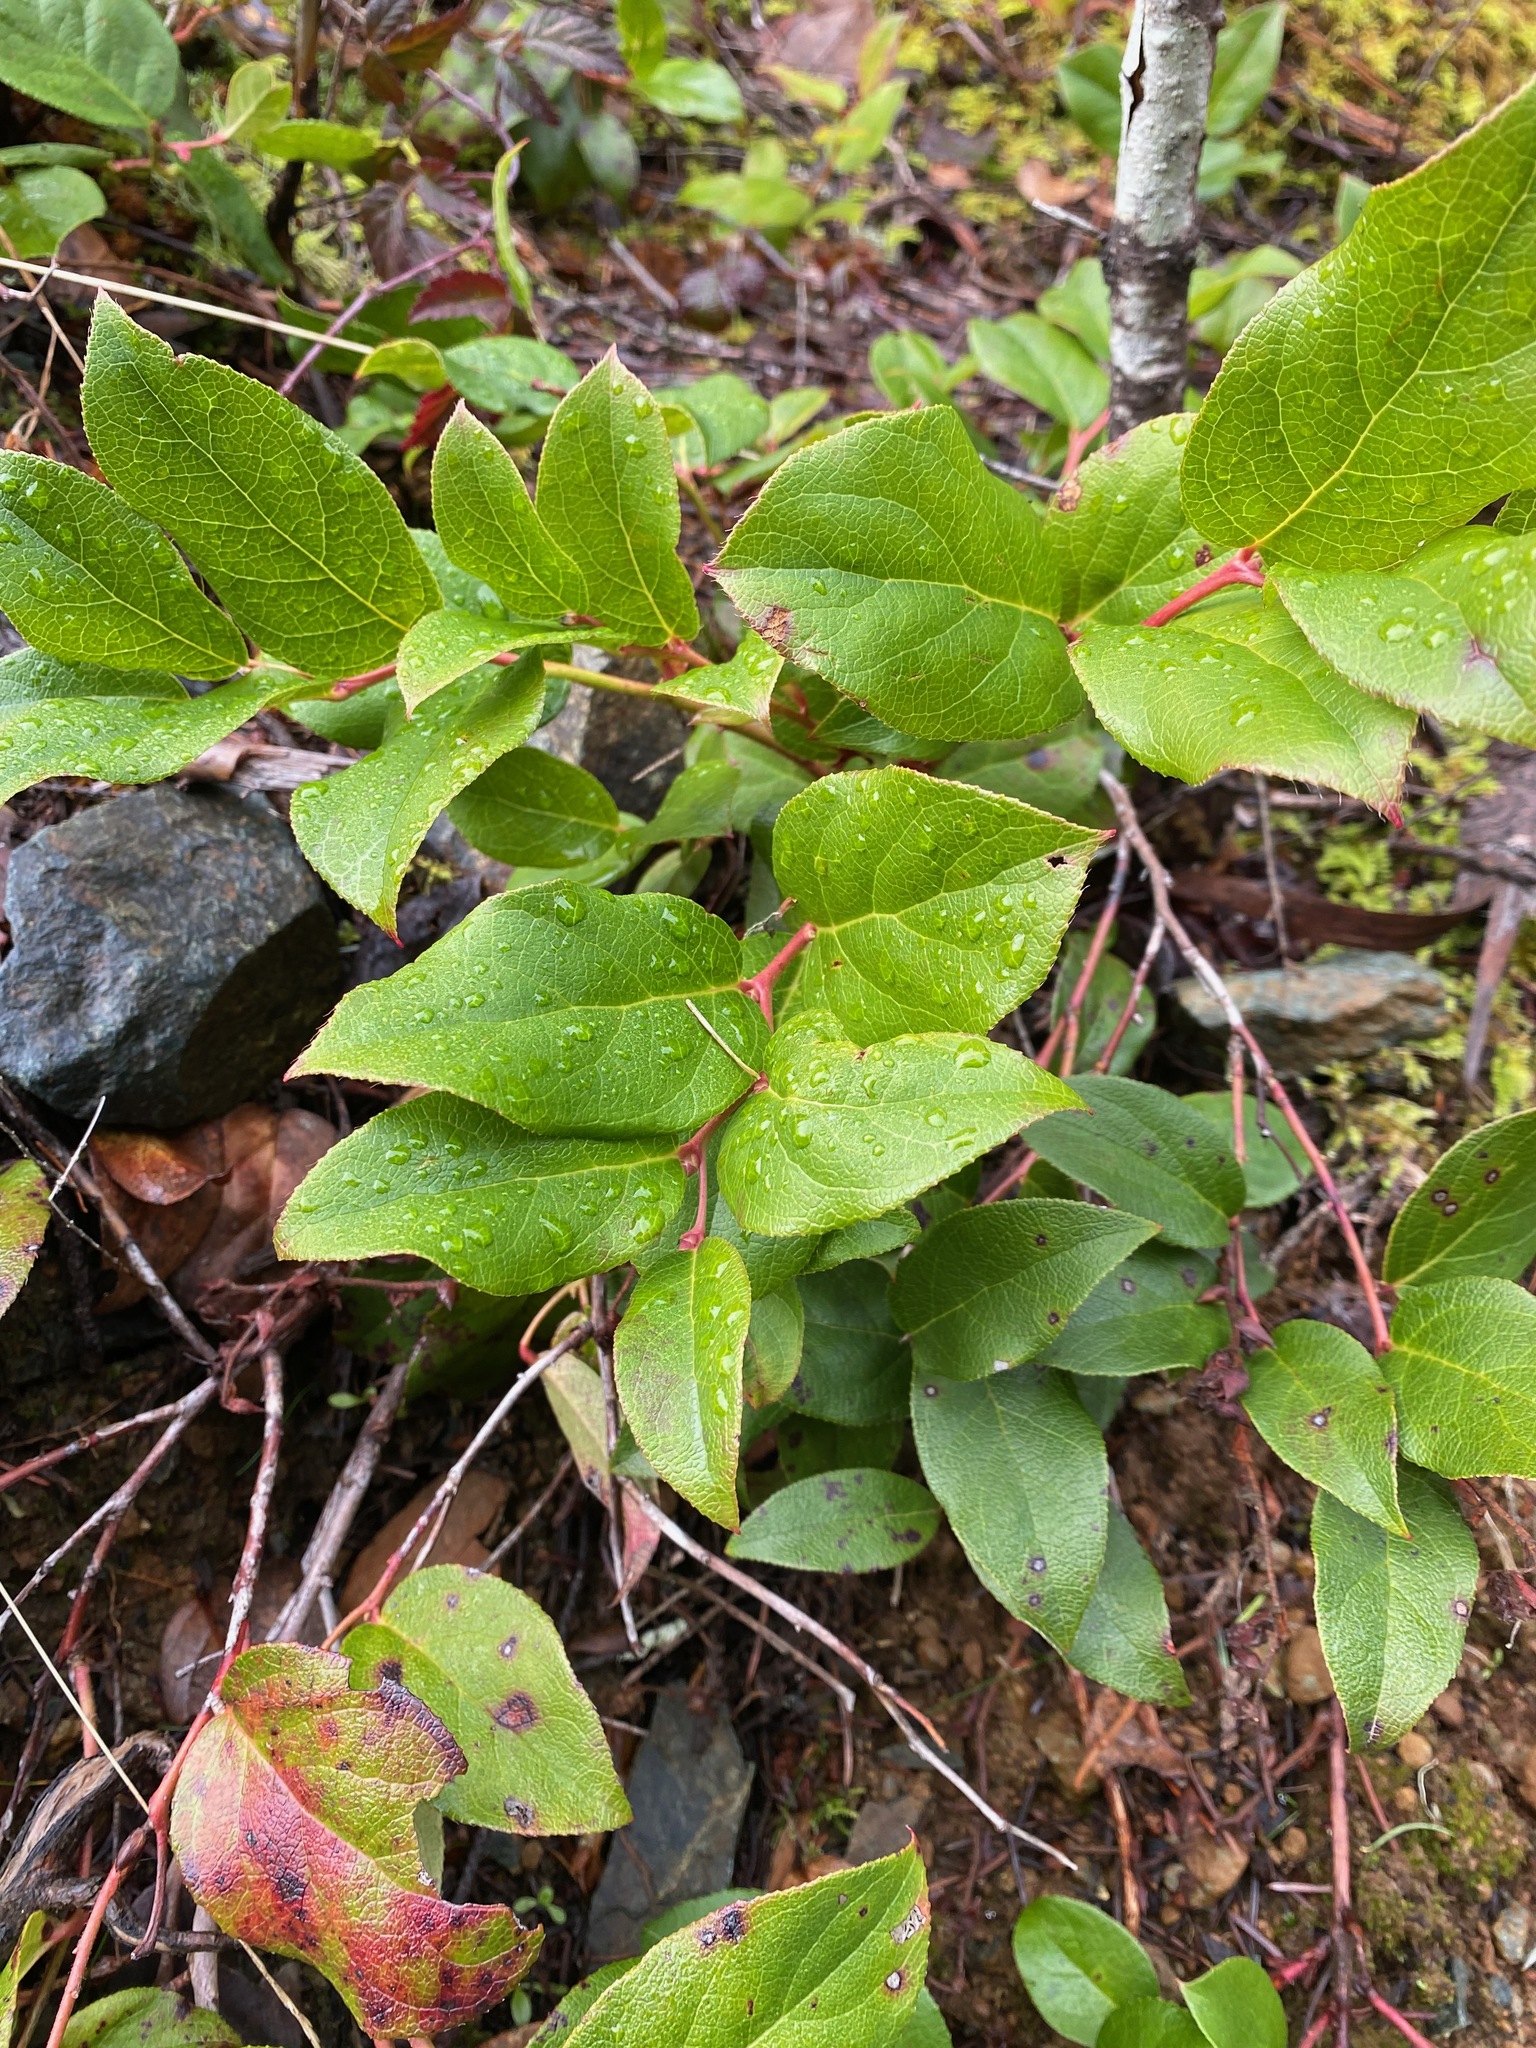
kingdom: Plantae
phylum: Tracheophyta
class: Magnoliopsida
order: Ericales
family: Ericaceae
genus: Gaultheria
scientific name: Gaultheria shallon
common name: Shallon
